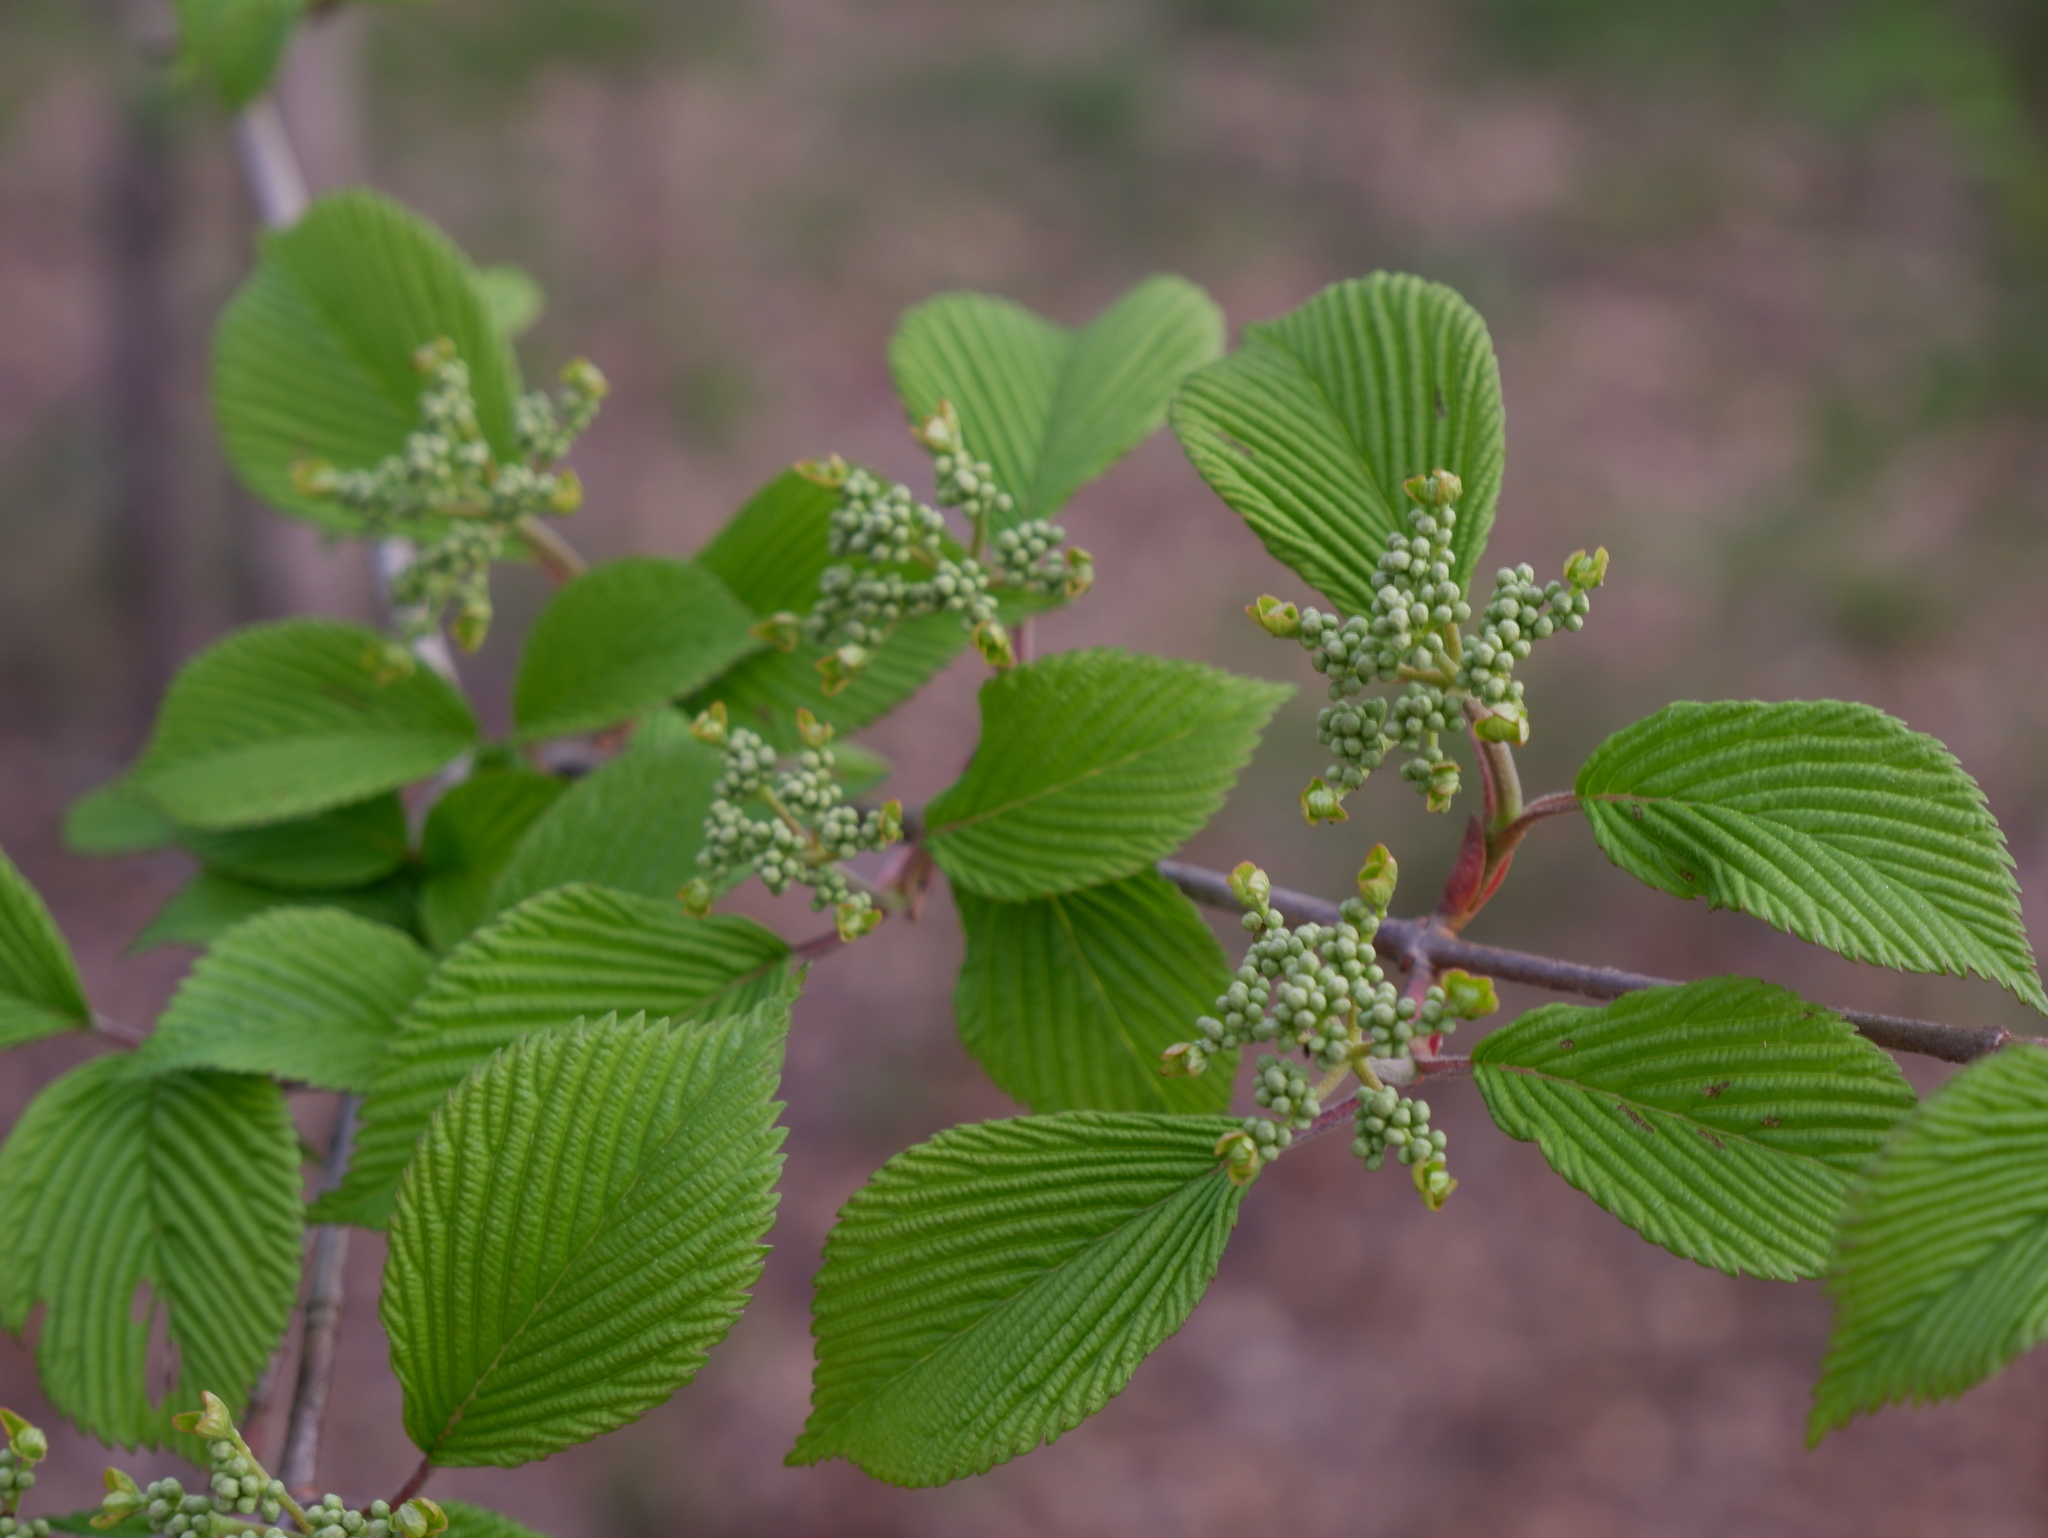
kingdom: Plantae
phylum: Tracheophyta
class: Magnoliopsida
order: Dipsacales
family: Viburnaceae
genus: Viburnum
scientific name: Viburnum plicatum
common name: Japanese snowball
